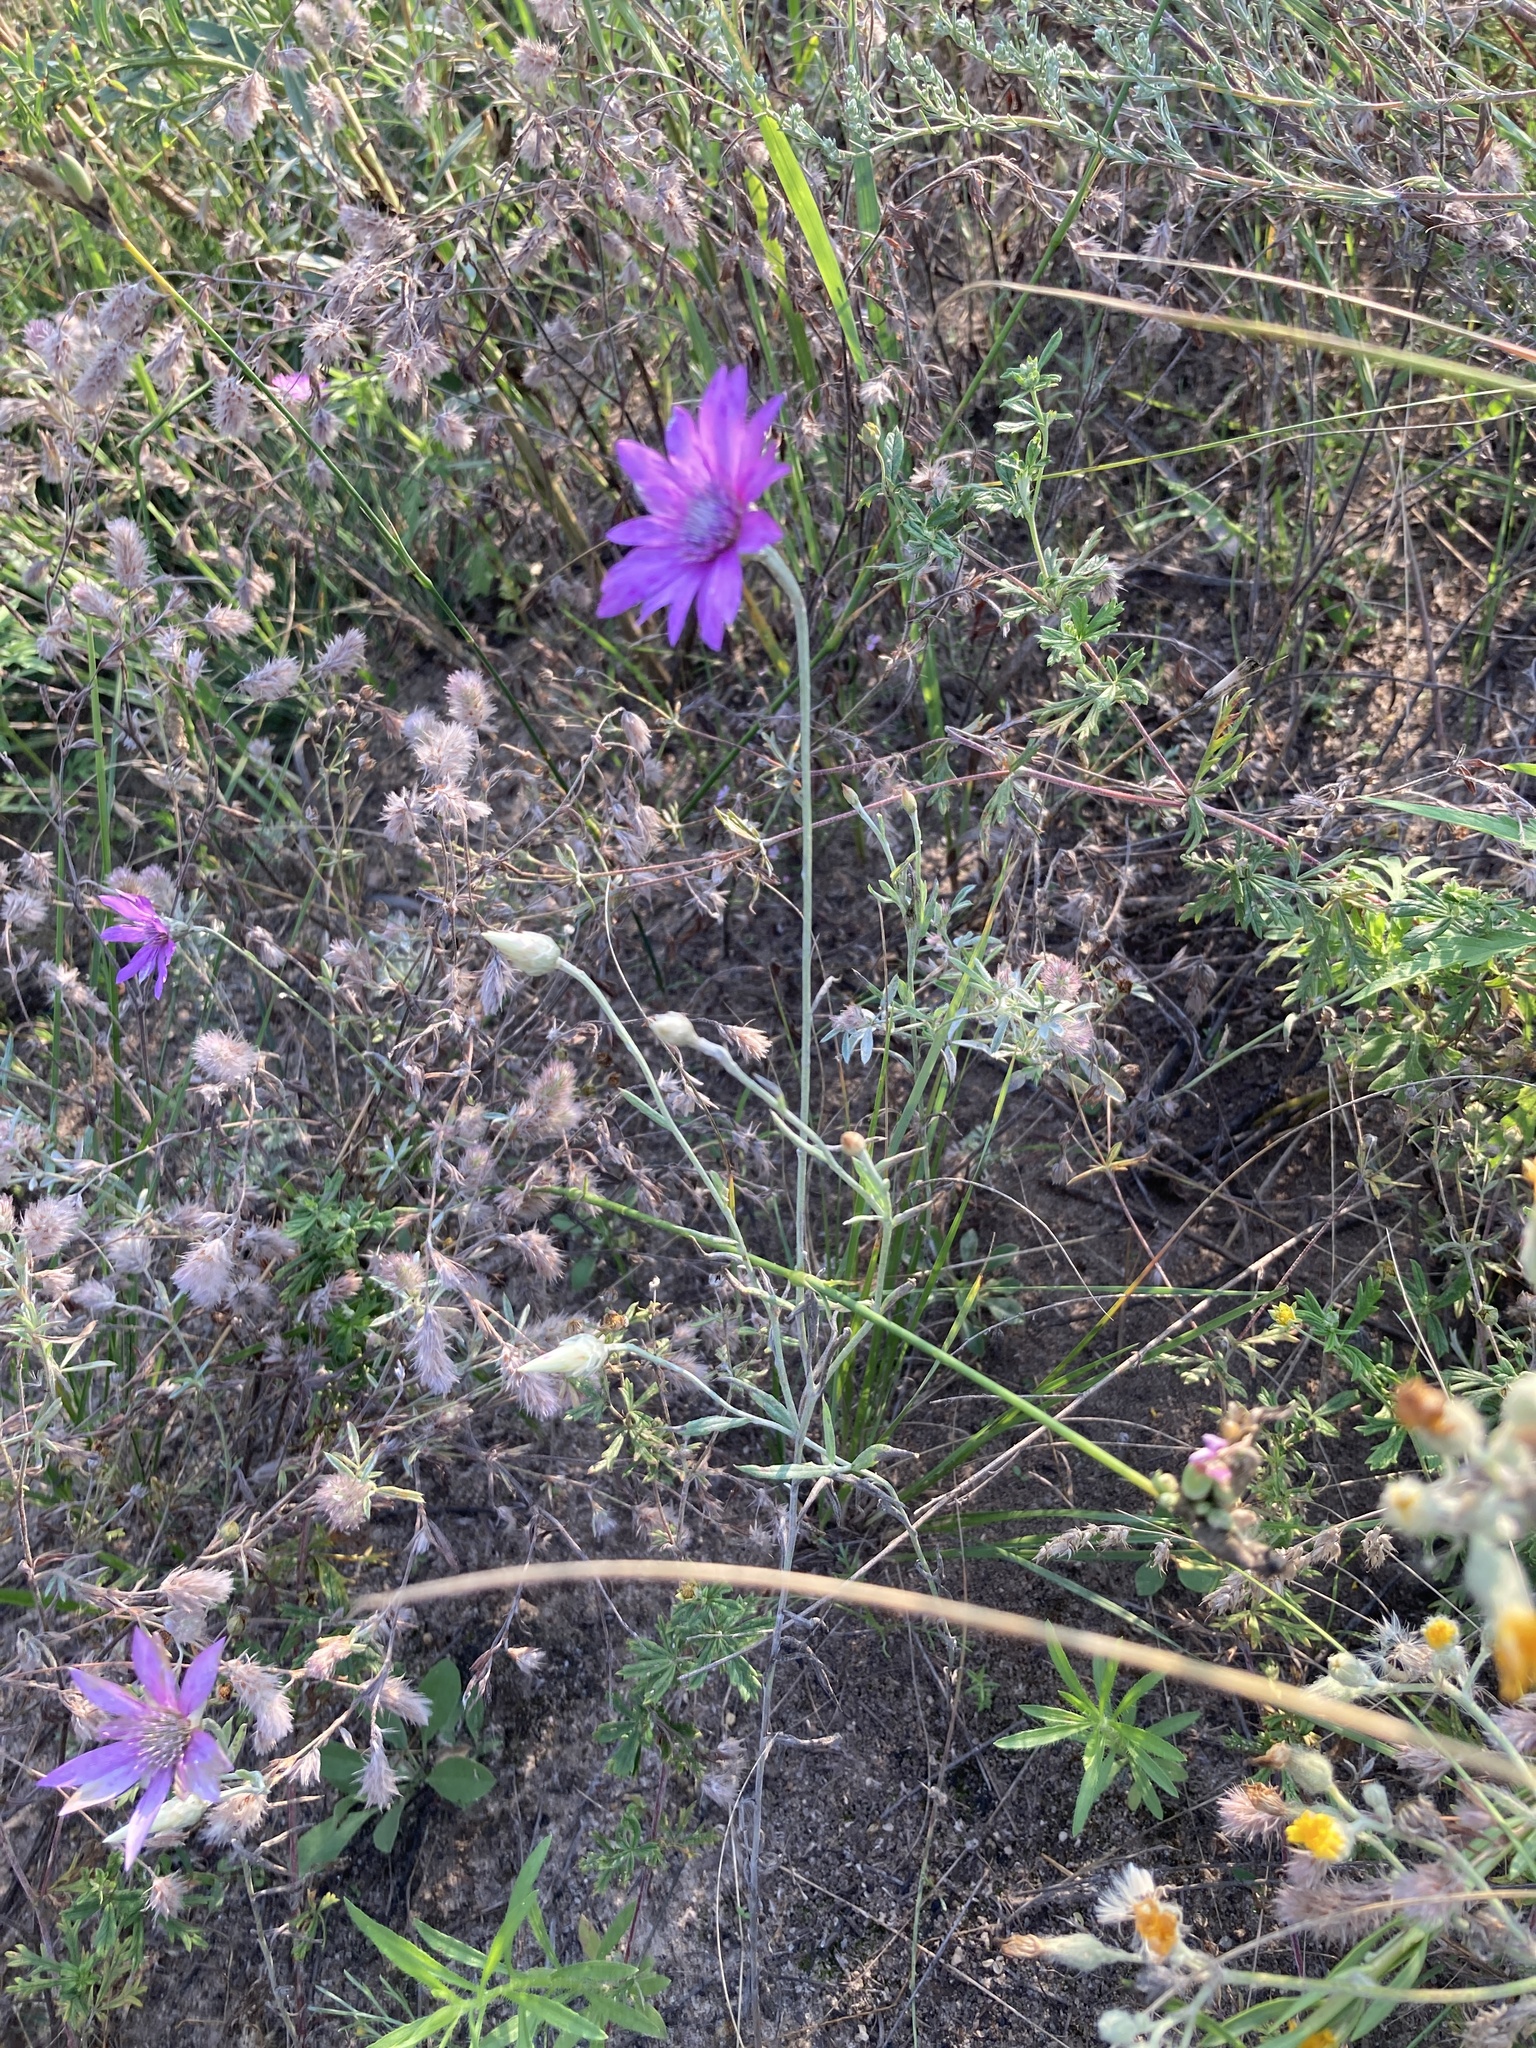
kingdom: Plantae
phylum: Tracheophyta
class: Magnoliopsida
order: Asterales
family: Asteraceae
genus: Xeranthemum
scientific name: Xeranthemum annuum
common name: Immortelle
